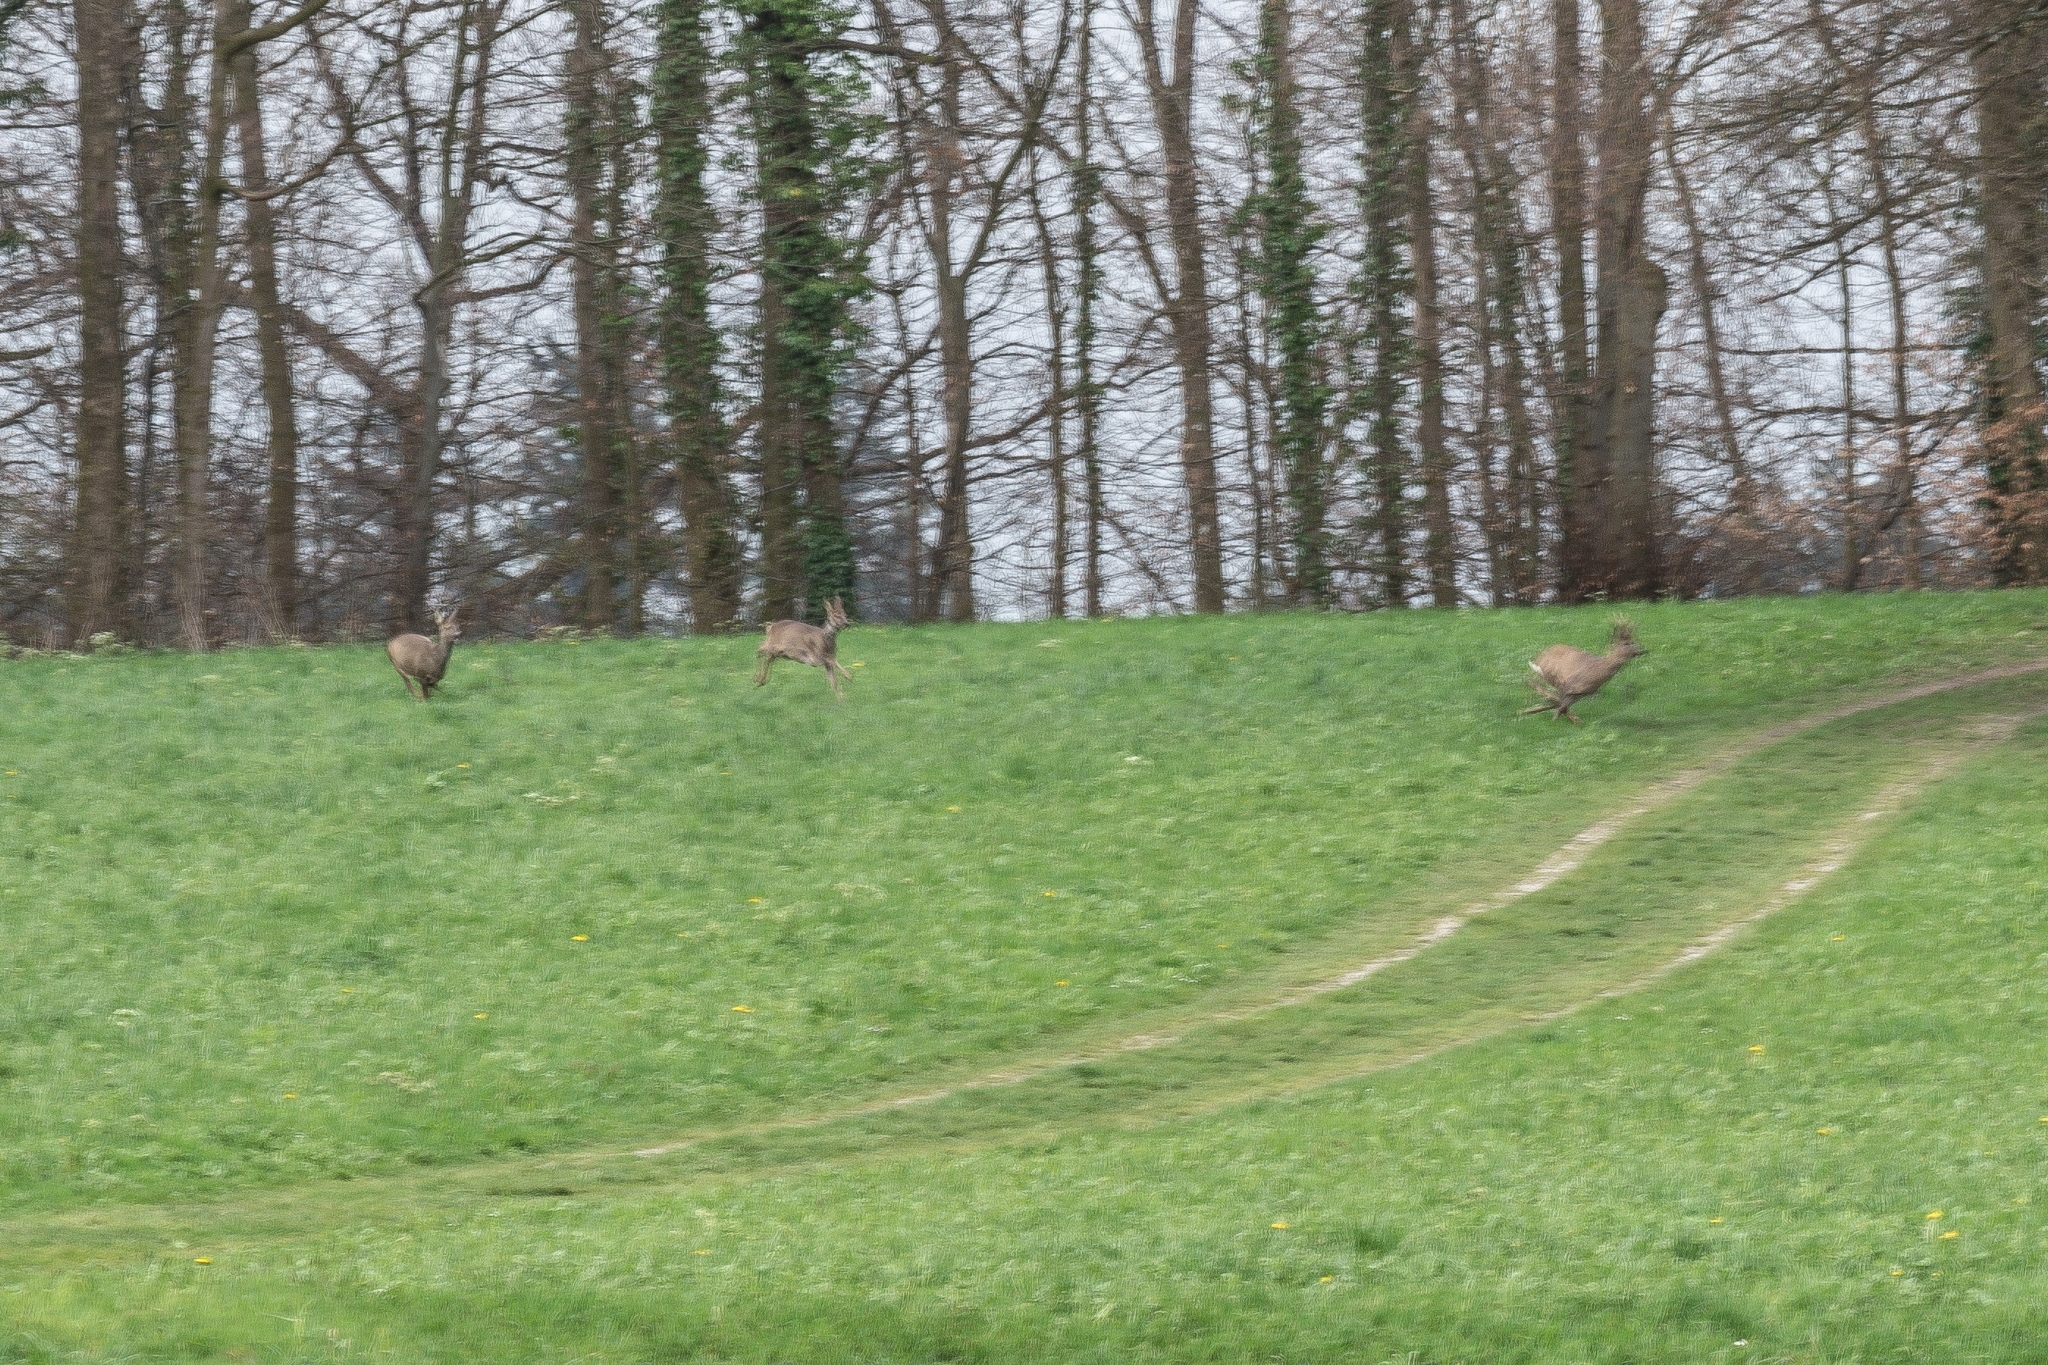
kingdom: Animalia
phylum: Chordata
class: Mammalia
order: Artiodactyla
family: Cervidae
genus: Capreolus
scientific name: Capreolus capreolus
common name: Western roe deer
